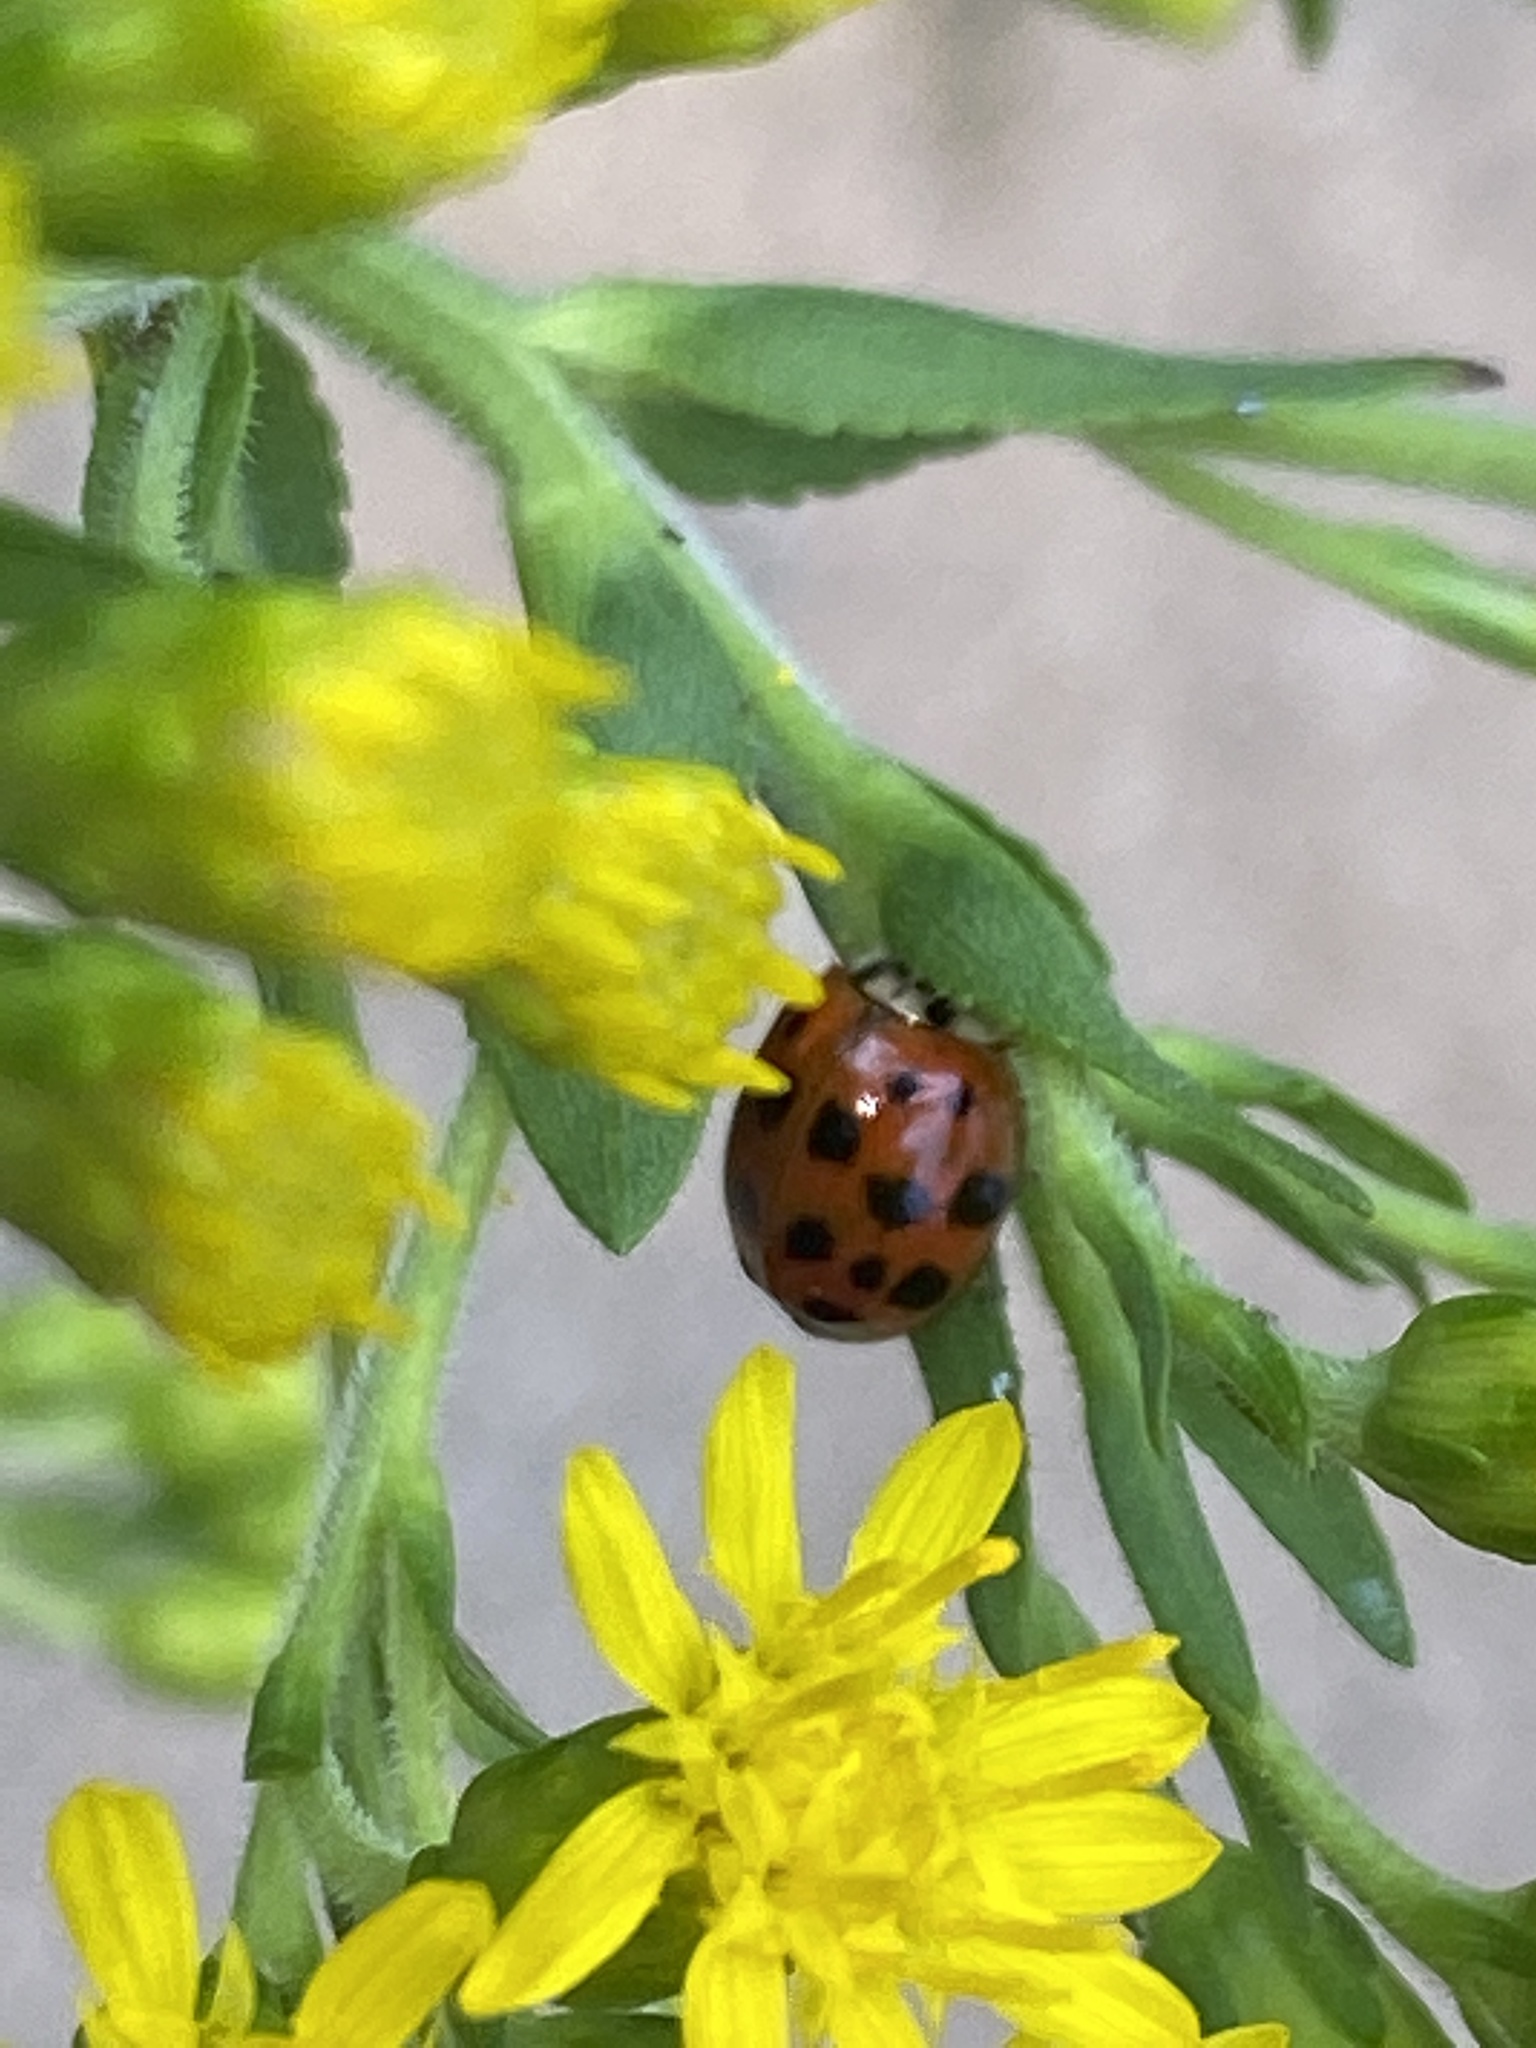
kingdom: Animalia
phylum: Arthropoda
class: Insecta
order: Coleoptera
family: Coccinellidae
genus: Harmonia
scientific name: Harmonia axyridis
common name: Harlequin ladybird
